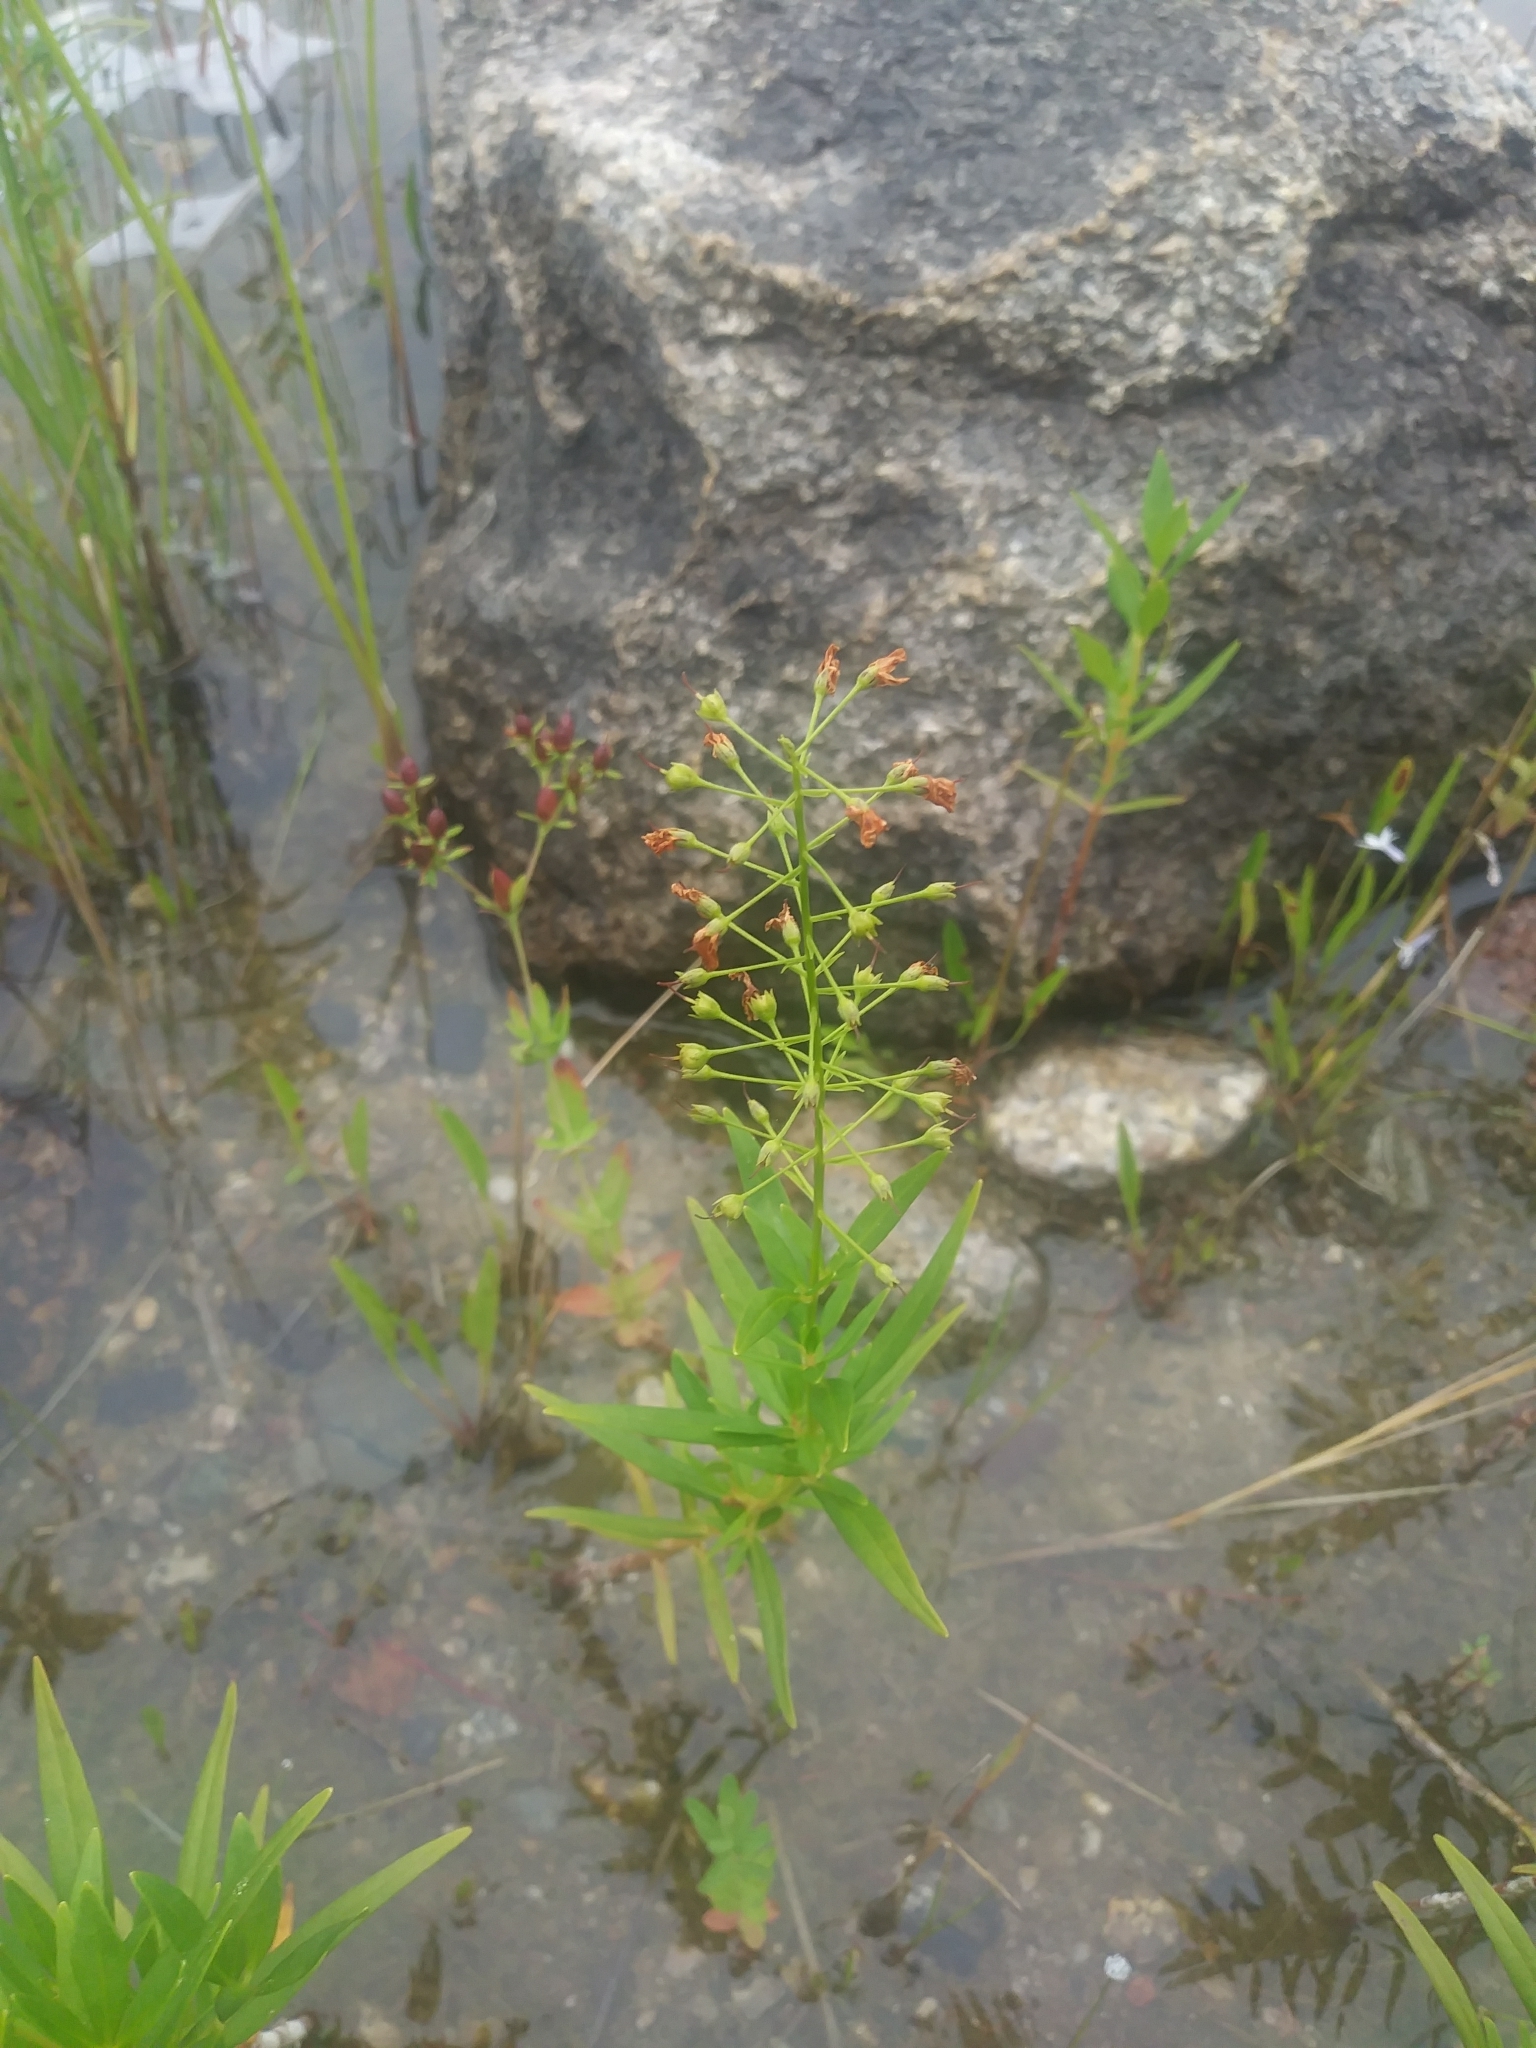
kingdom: Plantae
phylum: Tracheophyta
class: Magnoliopsida
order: Ericales
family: Primulaceae
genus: Lysimachia
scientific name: Lysimachia terrestris
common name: Lake loosestrife
